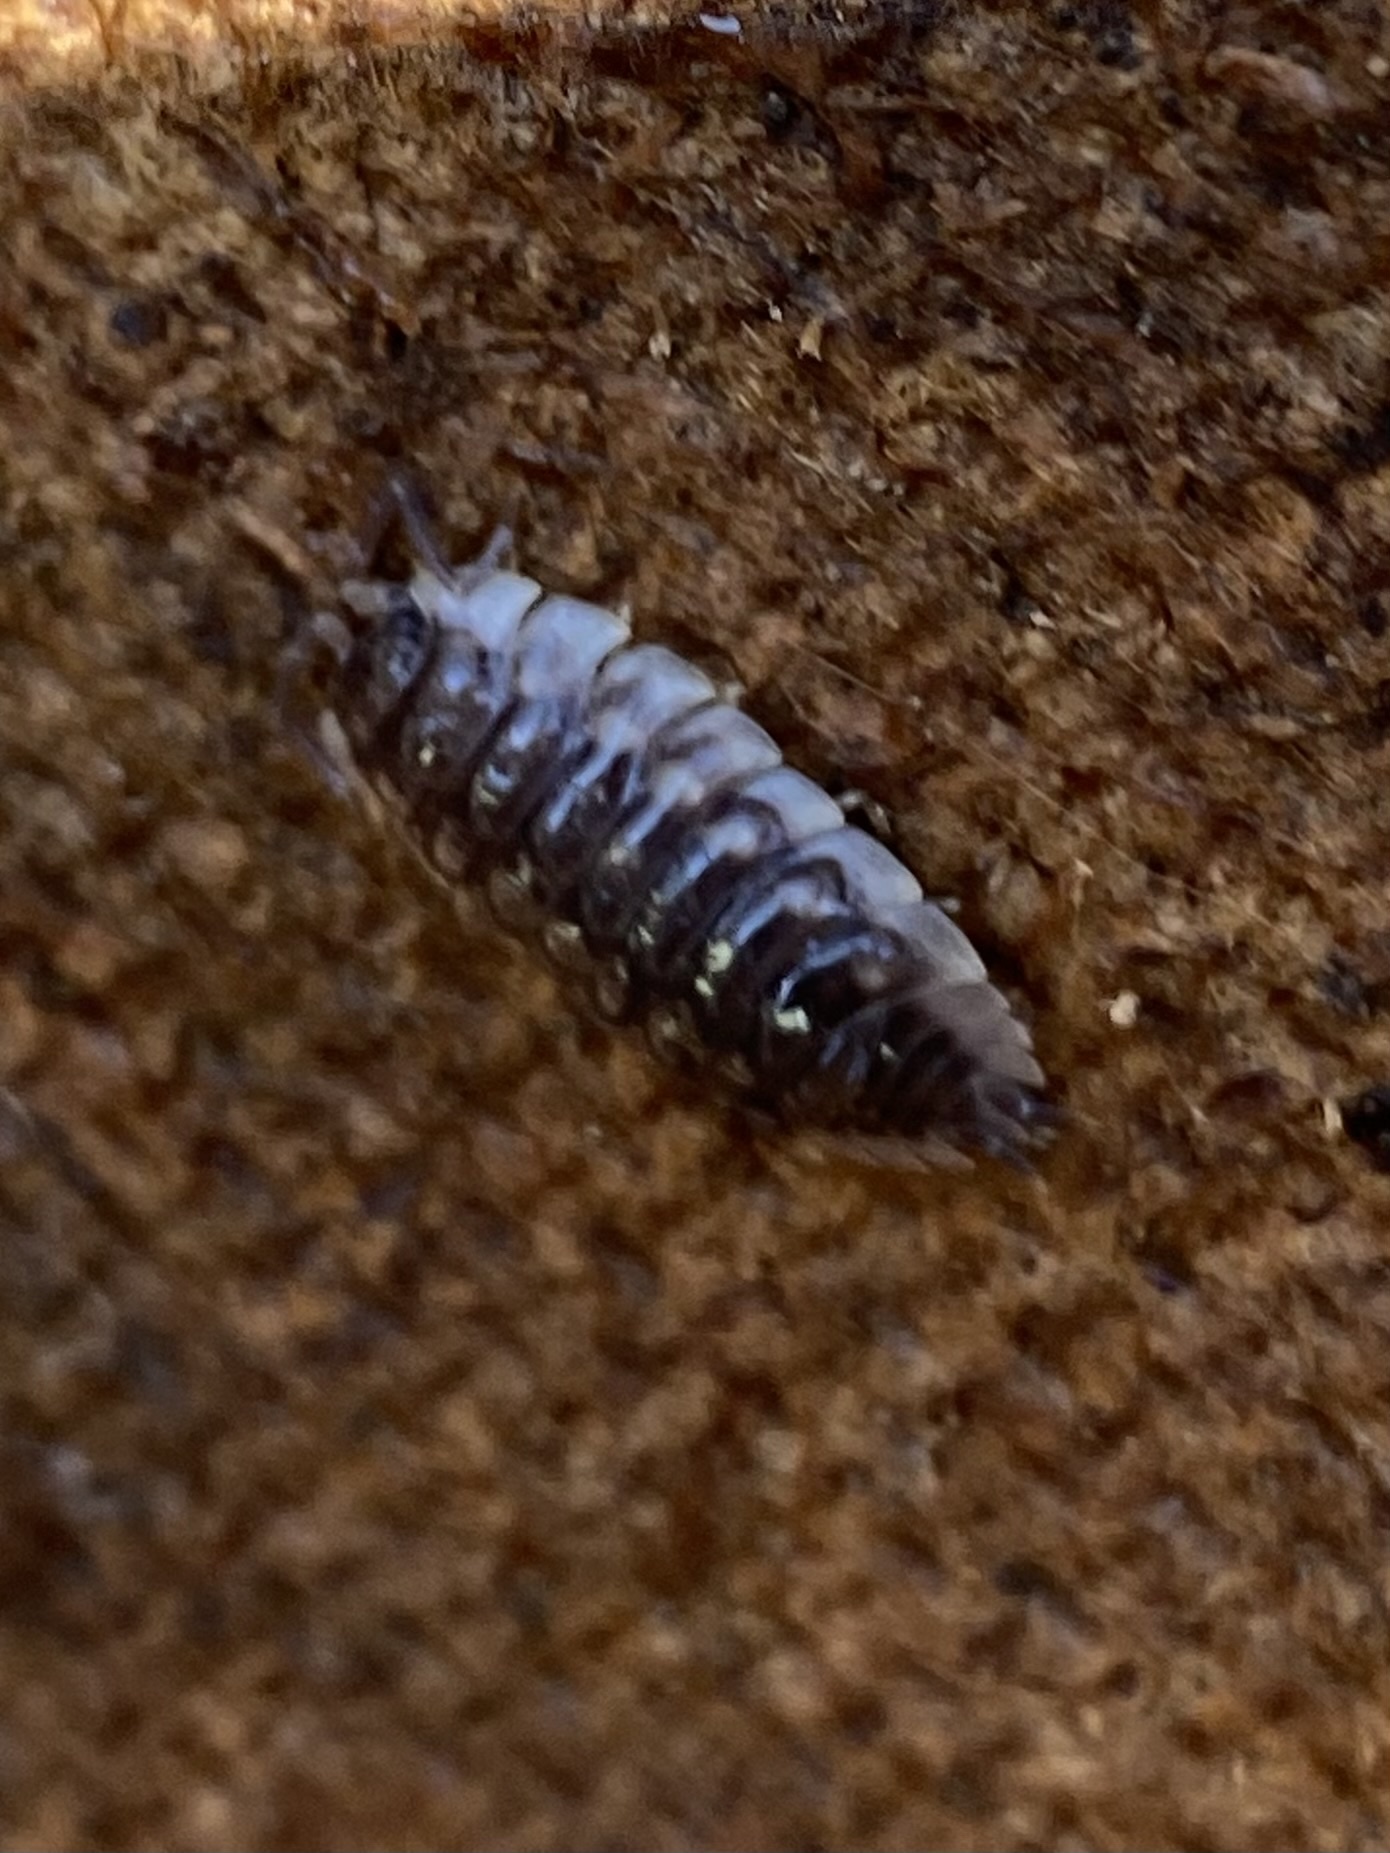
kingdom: Animalia
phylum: Arthropoda
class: Malacostraca
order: Isopoda
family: Oniscidae
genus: Oniscus
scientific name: Oniscus asellus
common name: Common shiny woodlouse
